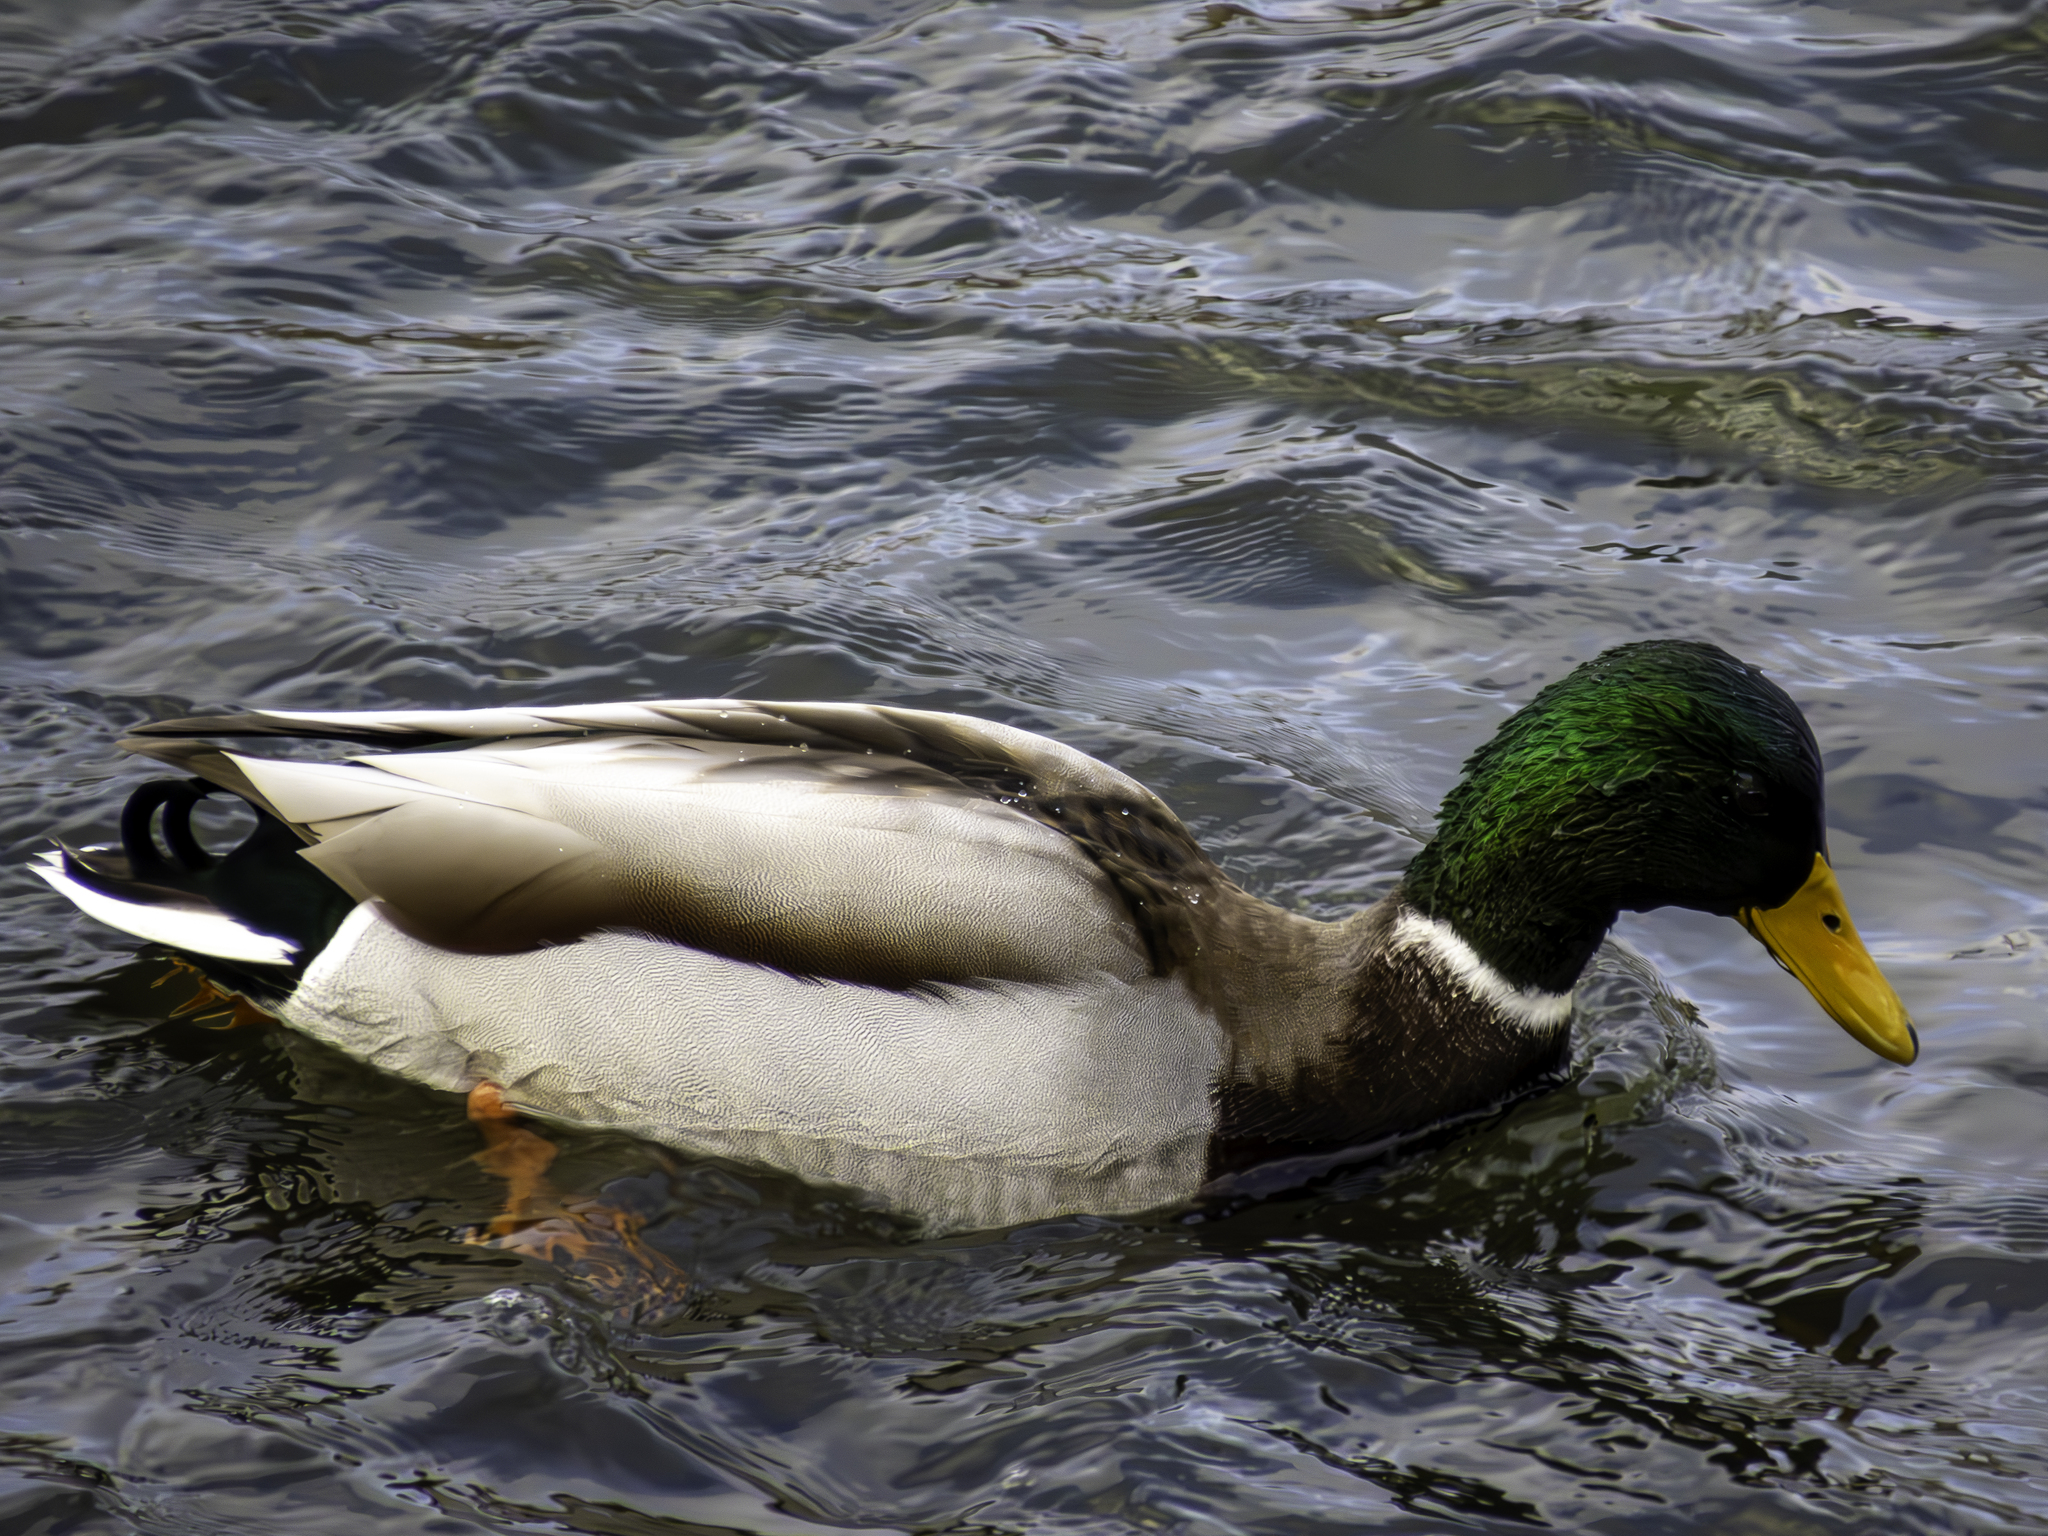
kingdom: Animalia
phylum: Chordata
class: Aves
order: Anseriformes
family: Anatidae
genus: Anas
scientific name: Anas platyrhynchos
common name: Mallard
